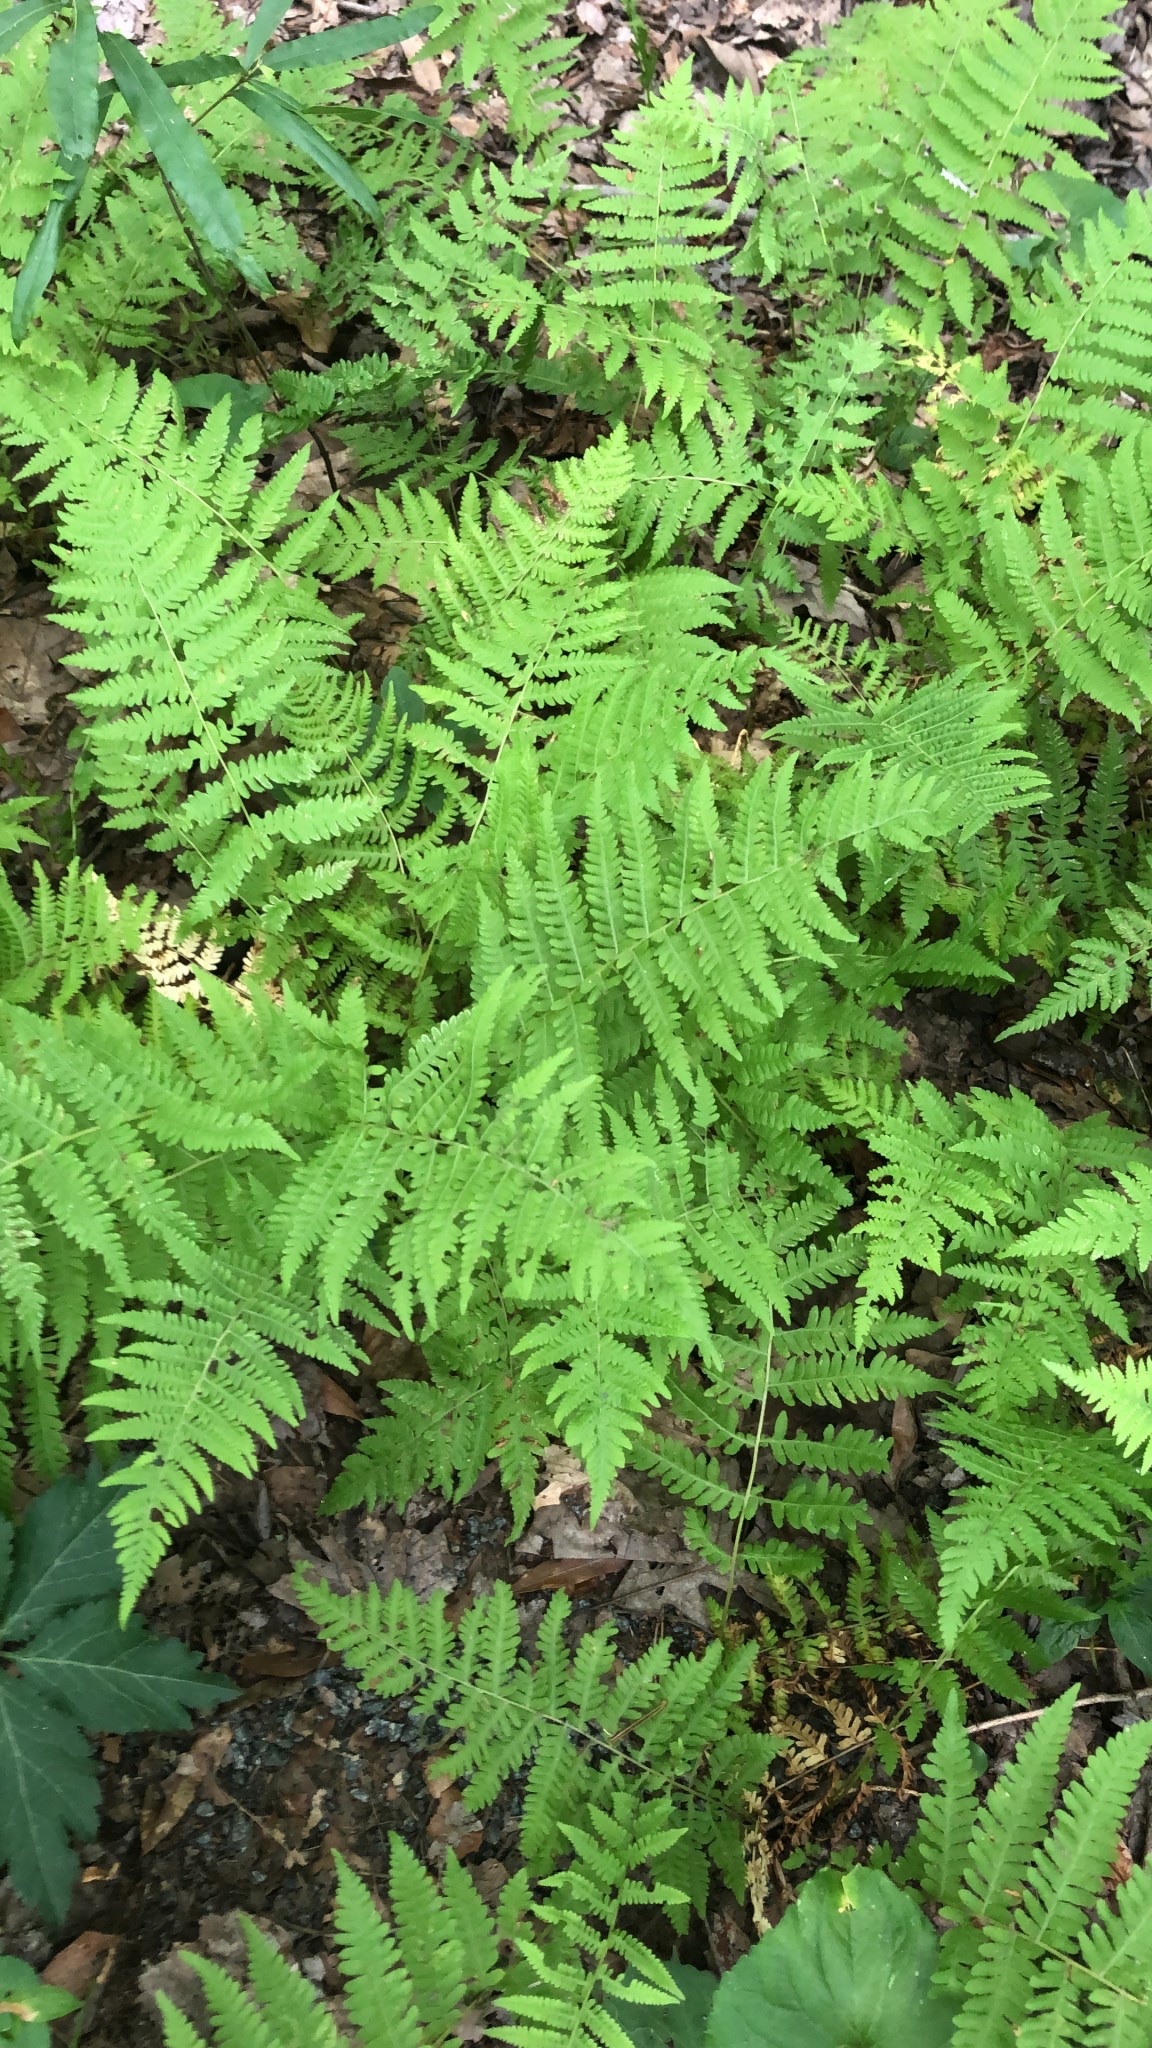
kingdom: Plantae
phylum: Tracheophyta
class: Polypodiopsida
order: Polypodiales
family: Thelypteridaceae
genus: Amauropelta
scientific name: Amauropelta noveboracensis
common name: New york fern
